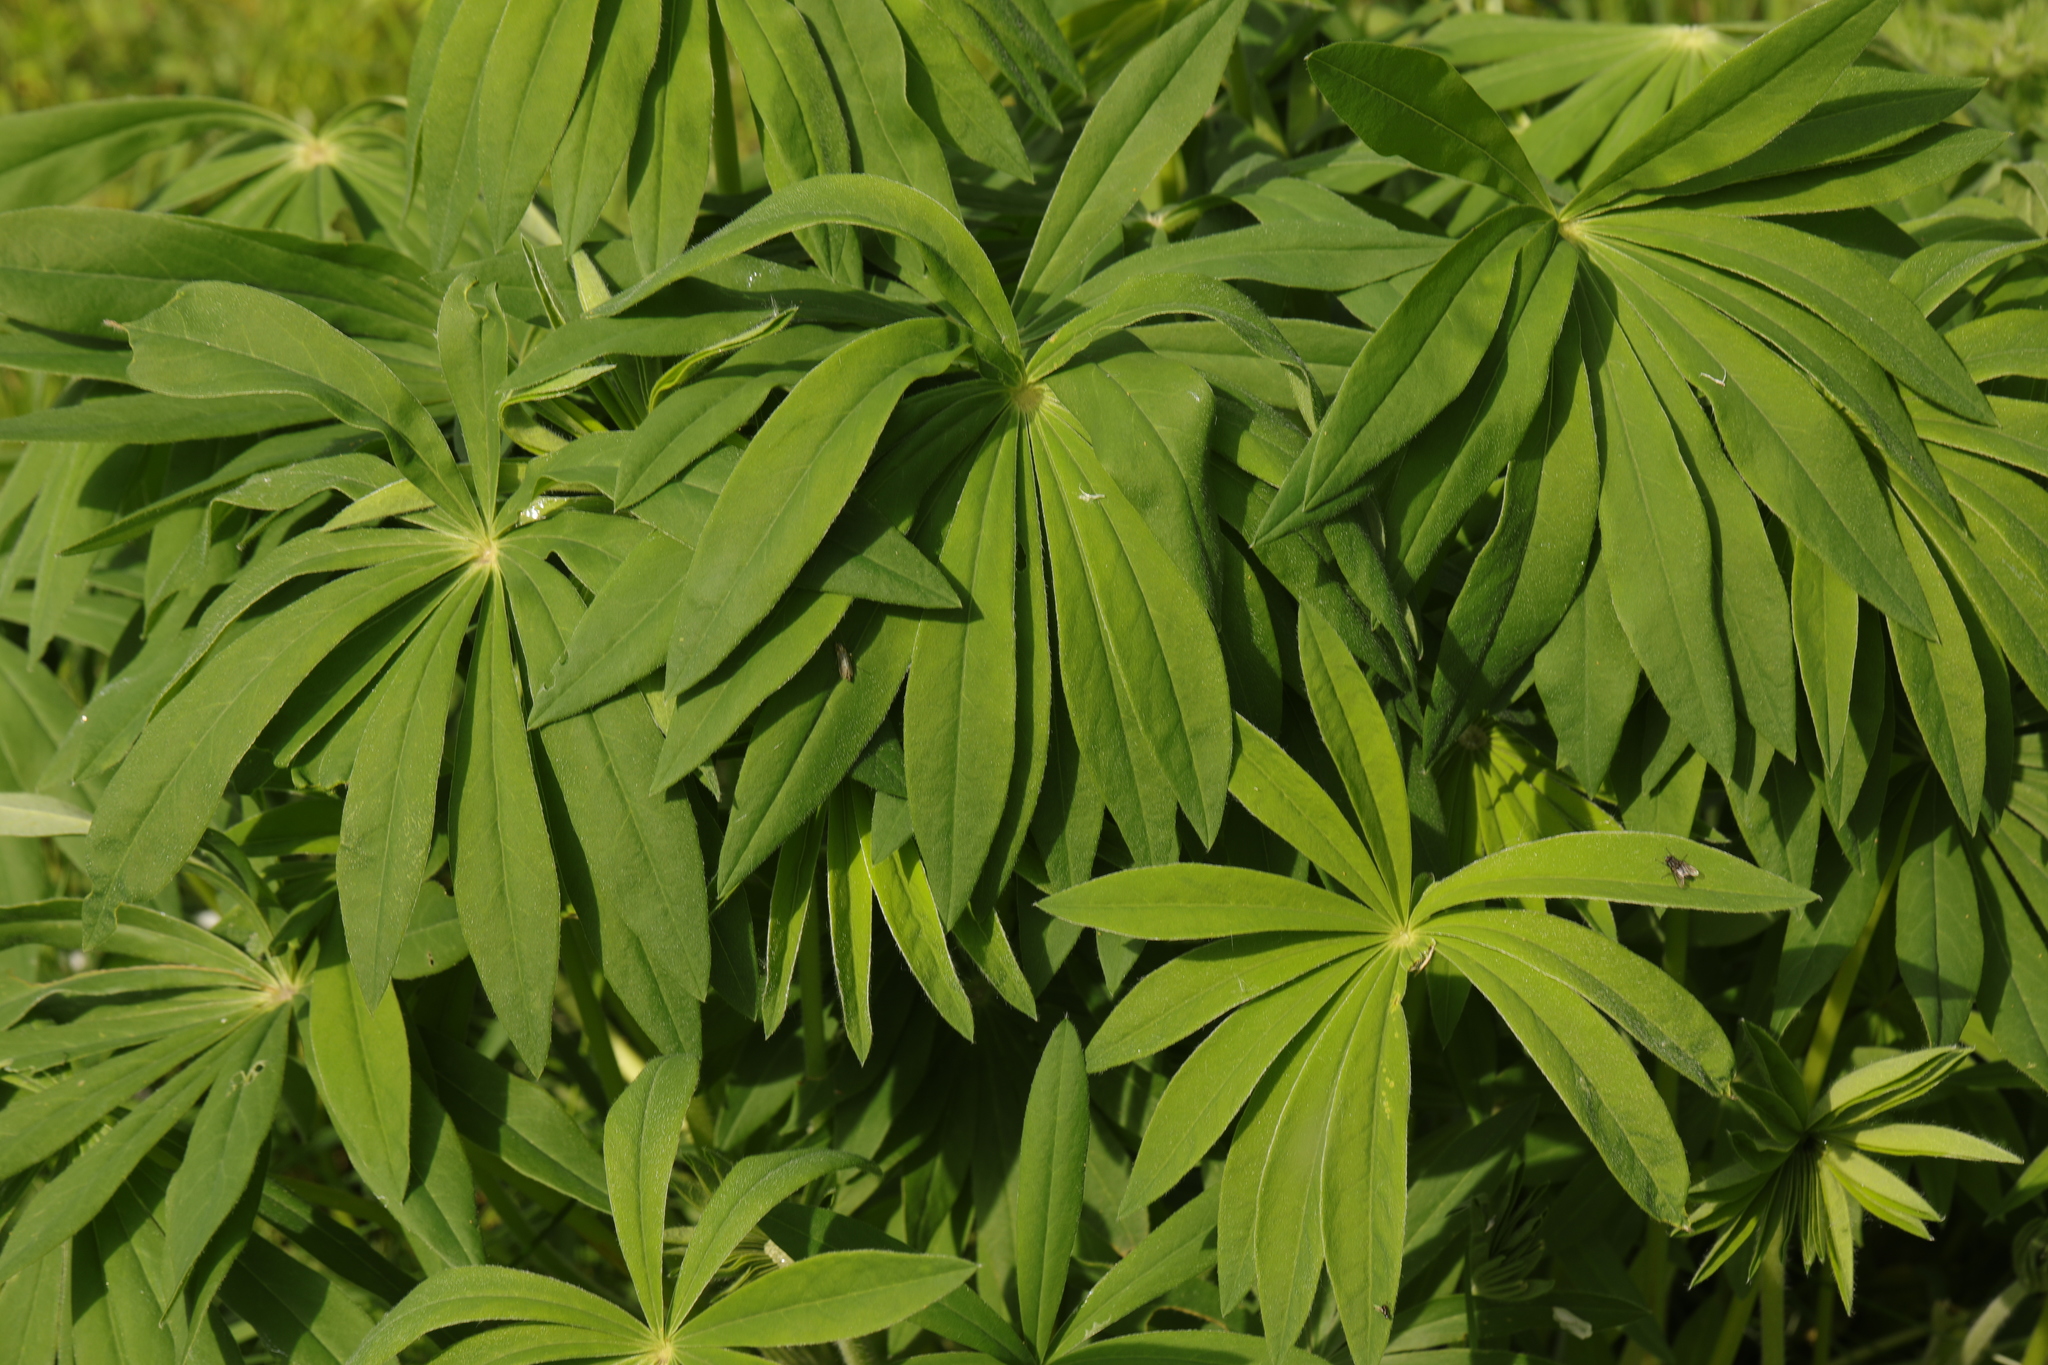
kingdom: Plantae
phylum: Tracheophyta
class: Magnoliopsida
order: Fabales
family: Fabaceae
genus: Lupinus
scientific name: Lupinus regalis
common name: Russell lupin
